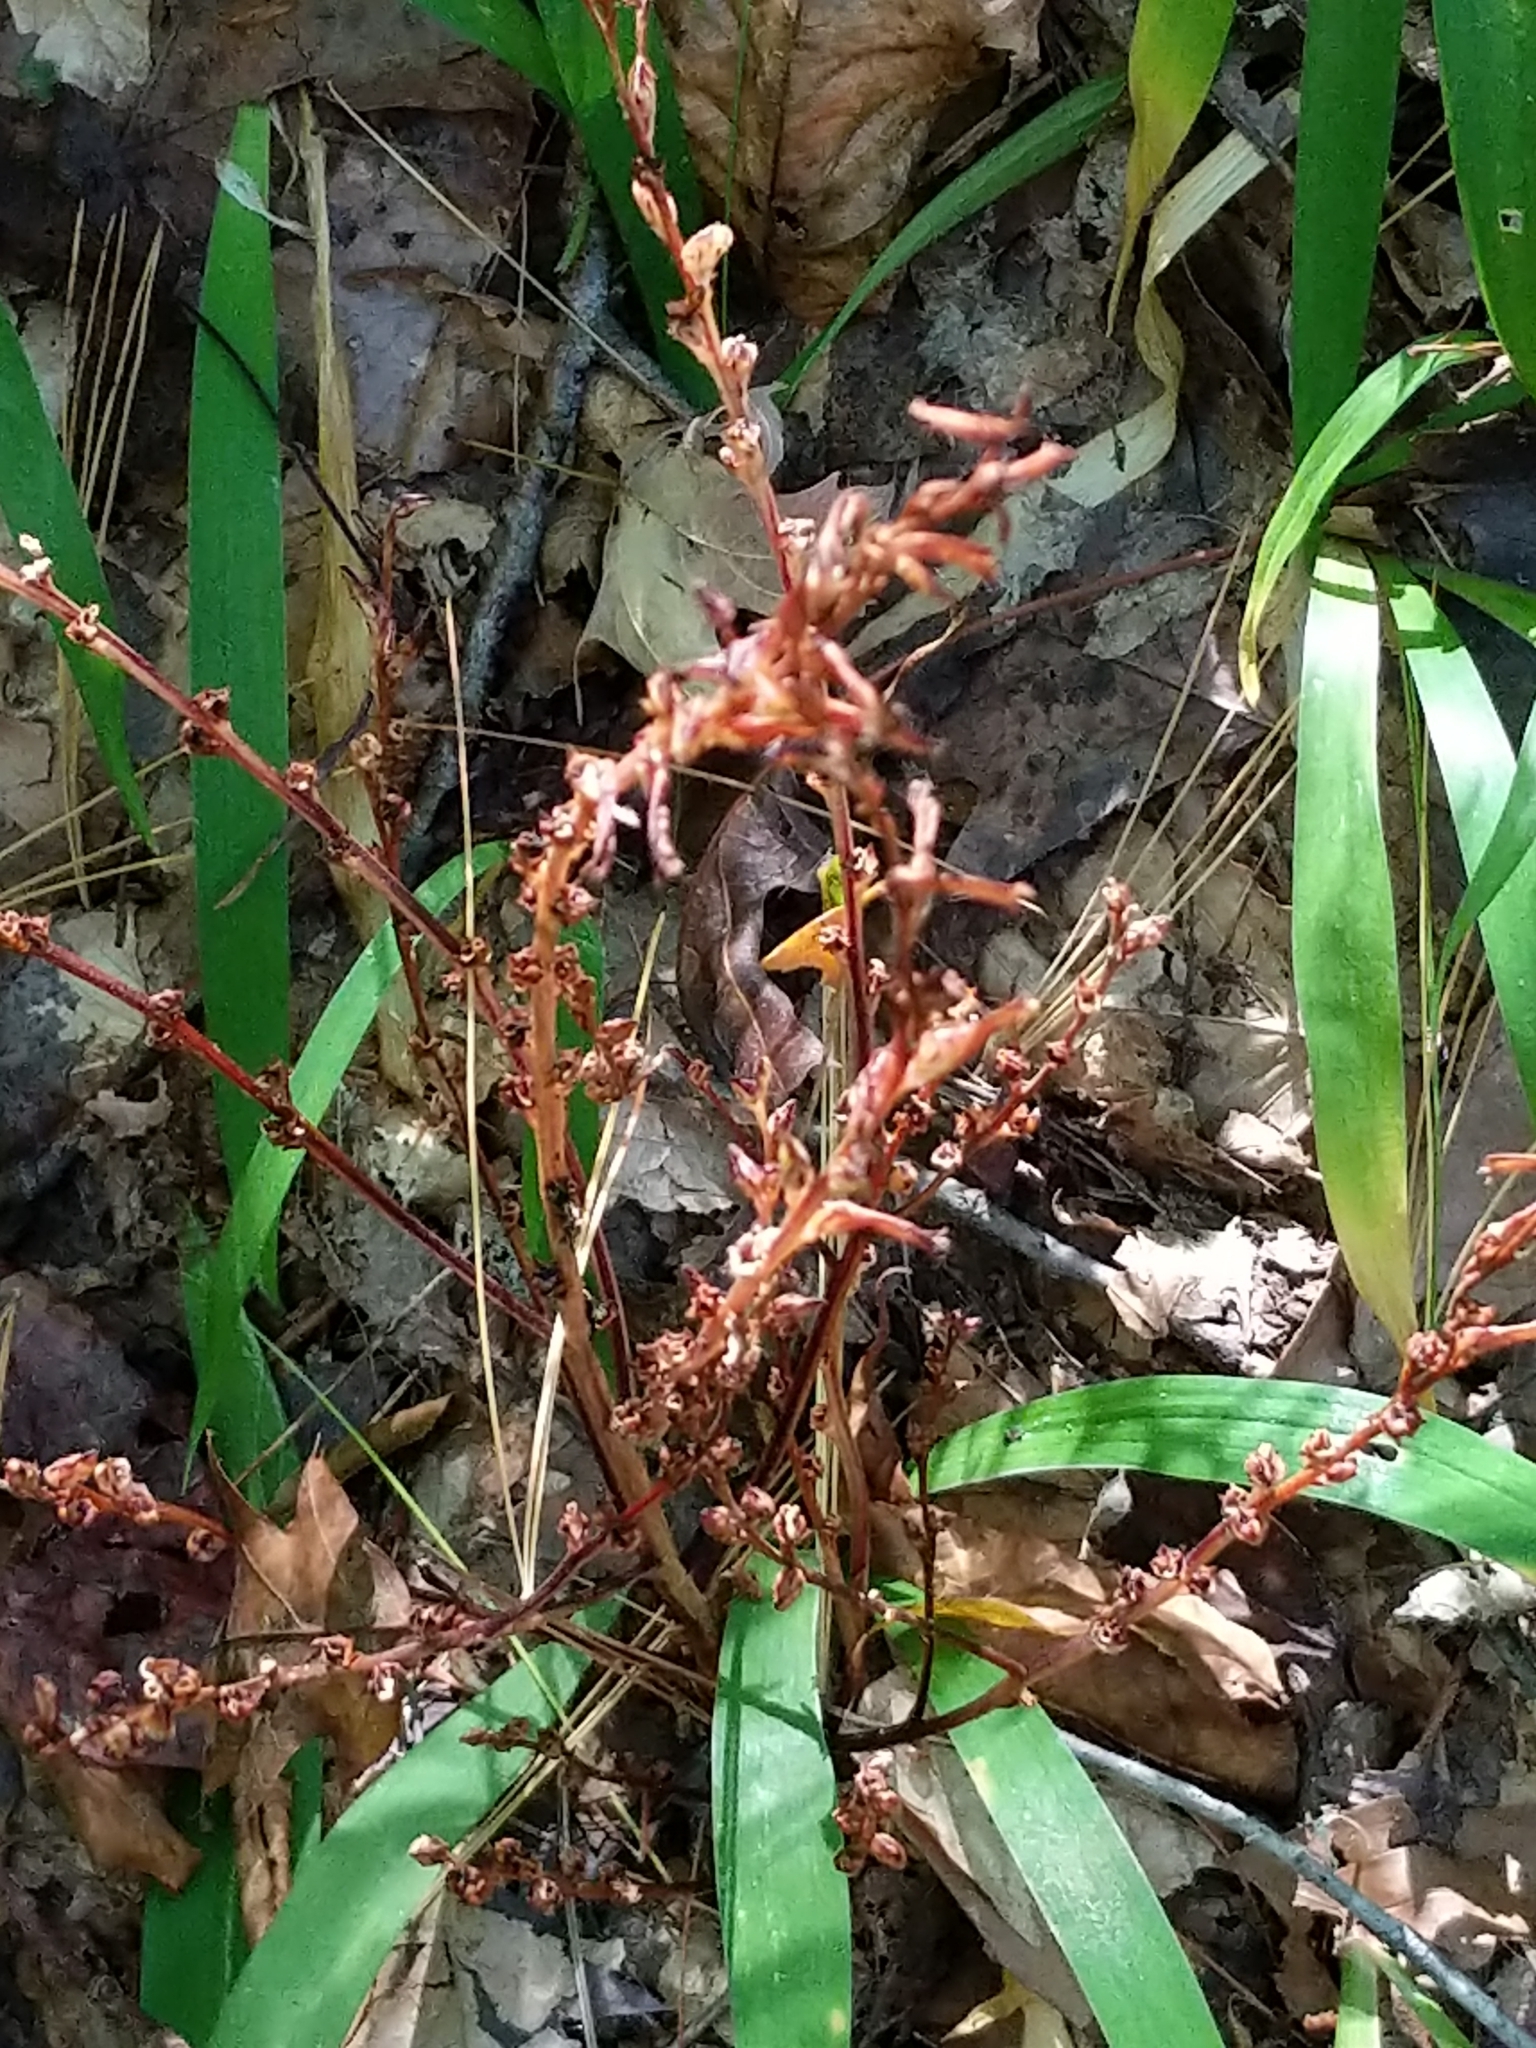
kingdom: Plantae
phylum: Tracheophyta
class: Magnoliopsida
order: Lamiales
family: Orobanchaceae
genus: Epifagus
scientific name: Epifagus virginiana
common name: Beechdrops
